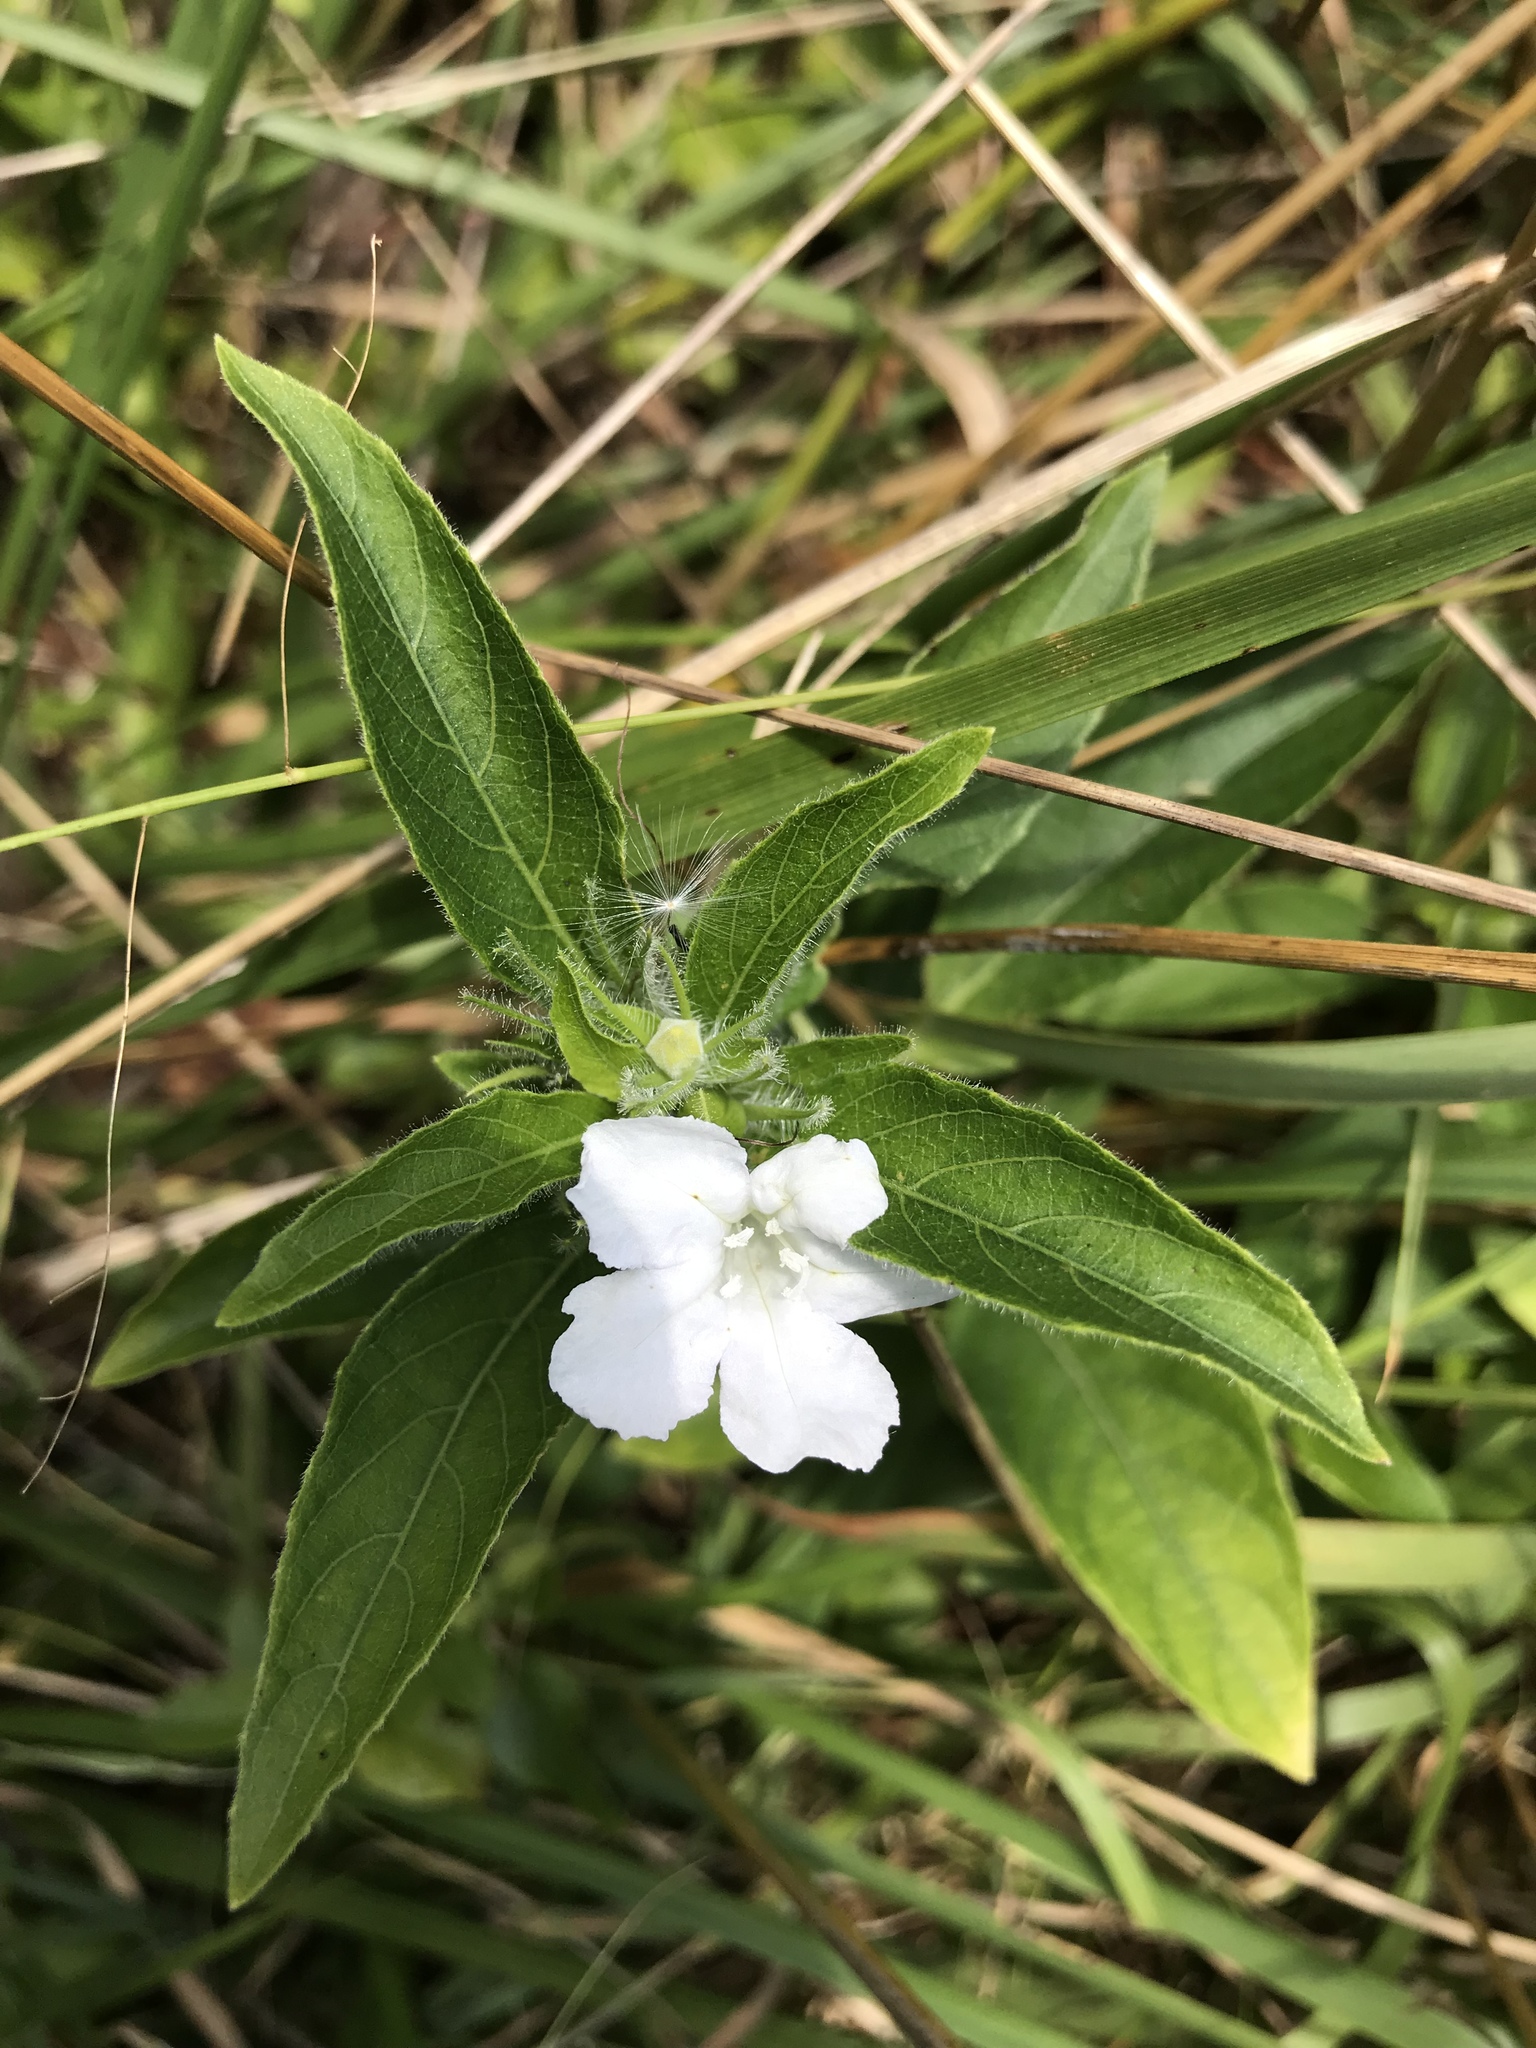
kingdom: Plantae
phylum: Tracheophyta
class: Magnoliopsida
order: Lamiales
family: Acanthaceae
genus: Ruellia
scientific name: Ruellia caroliniensis
